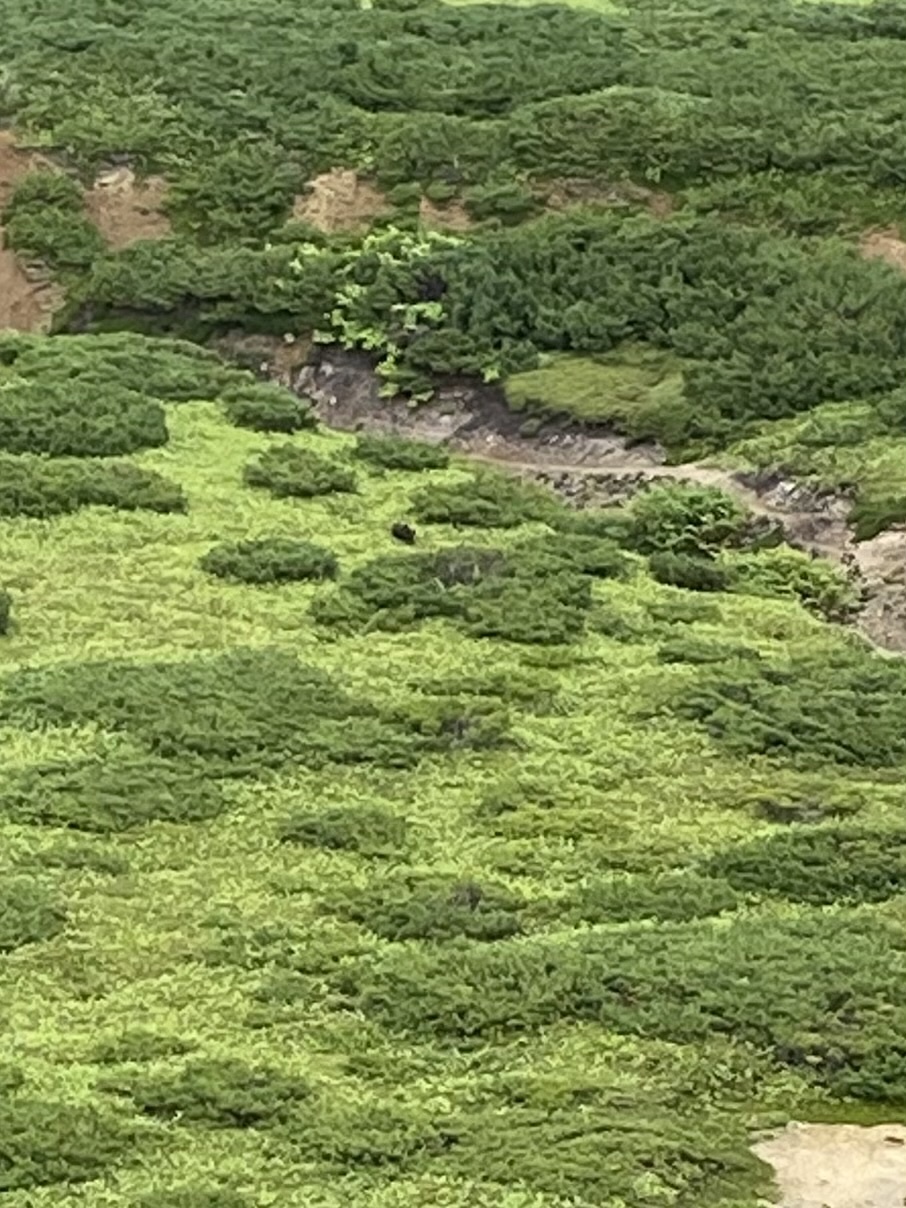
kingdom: Animalia
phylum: Chordata
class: Mammalia
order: Carnivora
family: Ursidae
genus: Ursus
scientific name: Ursus arctos
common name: Brown bear
